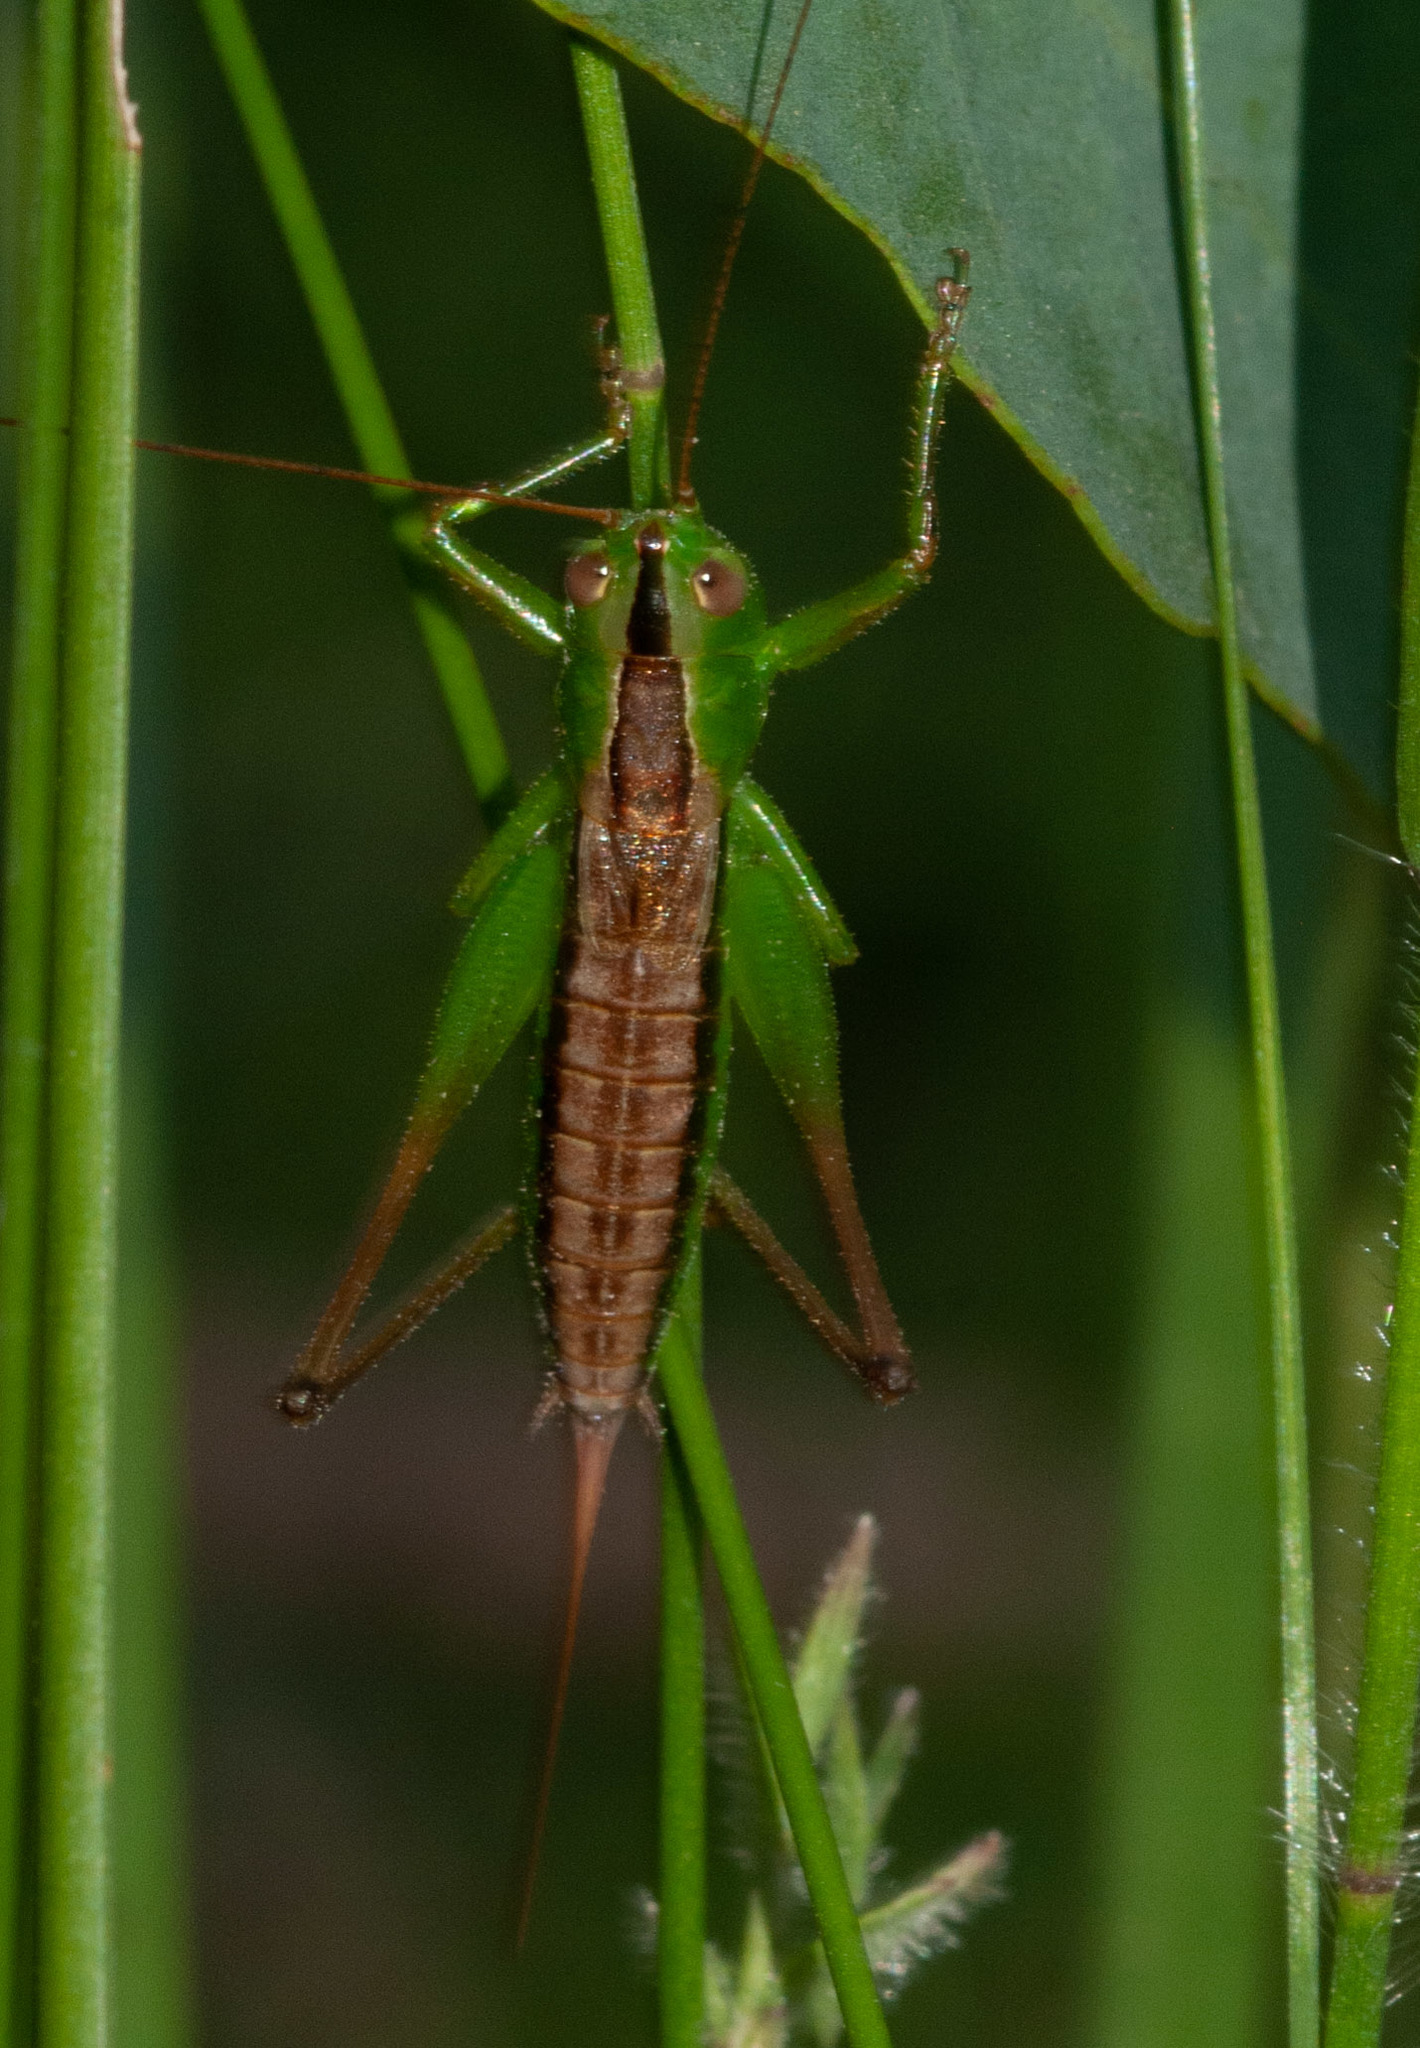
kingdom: Animalia
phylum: Arthropoda
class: Insecta
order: Orthoptera
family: Tettigoniidae
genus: Conocephalus
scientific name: Conocephalus semivittatus
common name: Blackish meadow katydid
